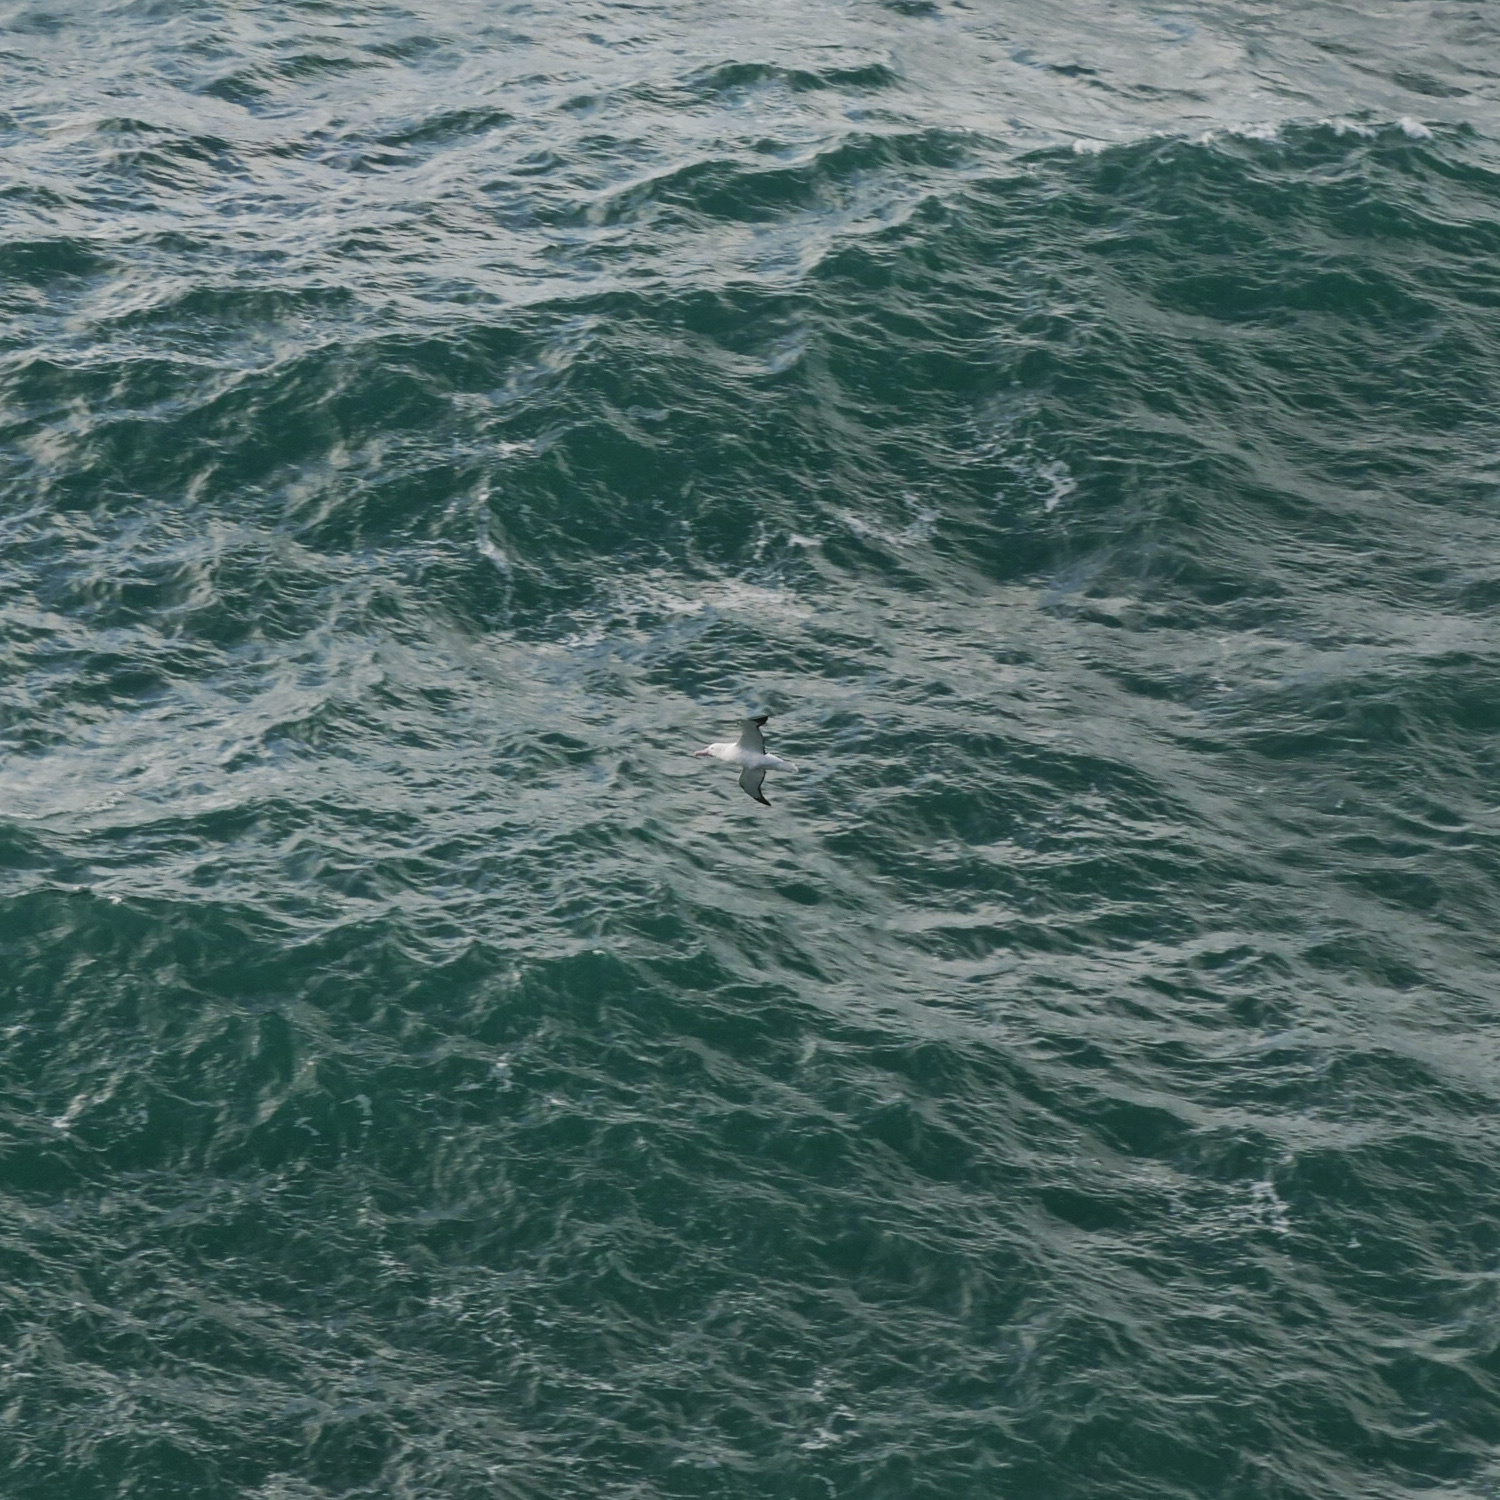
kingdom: Animalia
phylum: Chordata
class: Aves
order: Procellariiformes
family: Diomedeidae
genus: Diomedea
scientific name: Diomedea sanfordi
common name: Northern royal albatross
